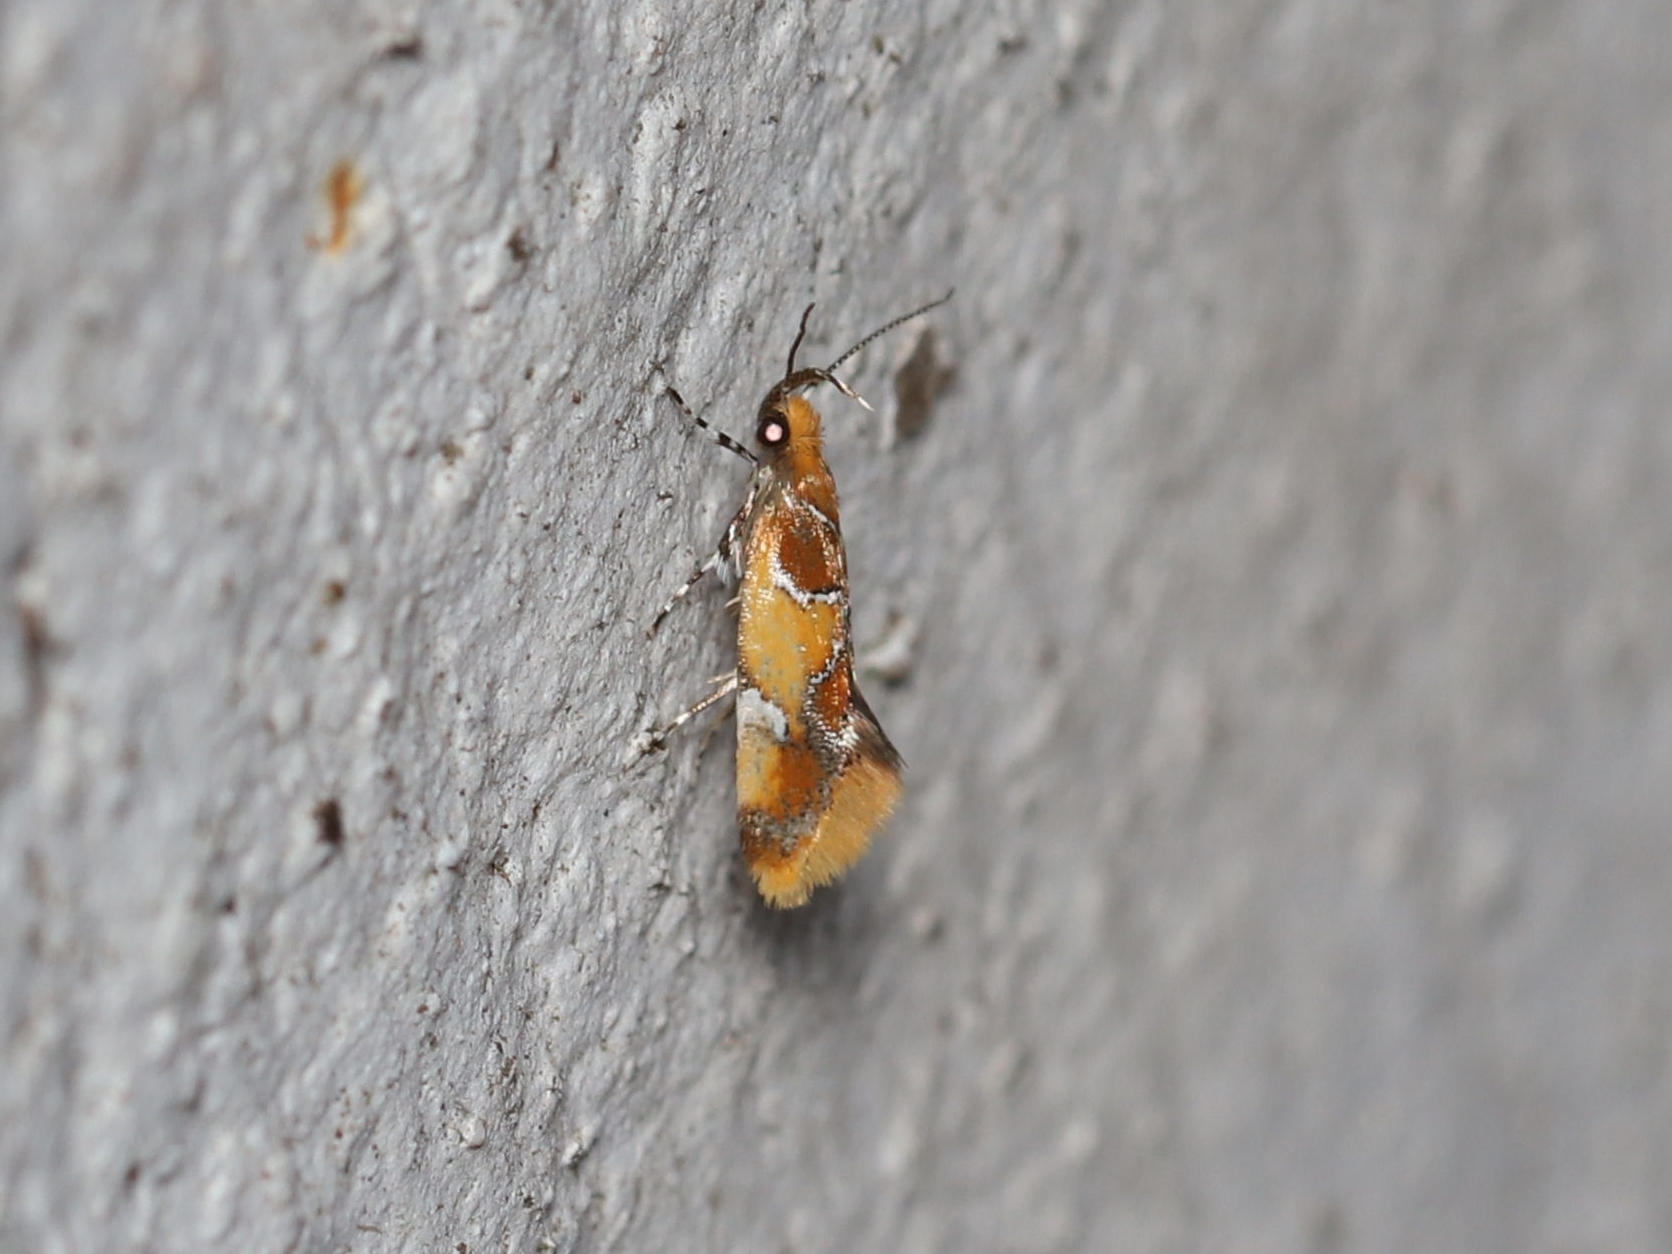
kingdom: Animalia
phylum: Arthropoda
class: Insecta
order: Lepidoptera
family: Oecophoridae
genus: Callima
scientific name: Callima argenticinctella
